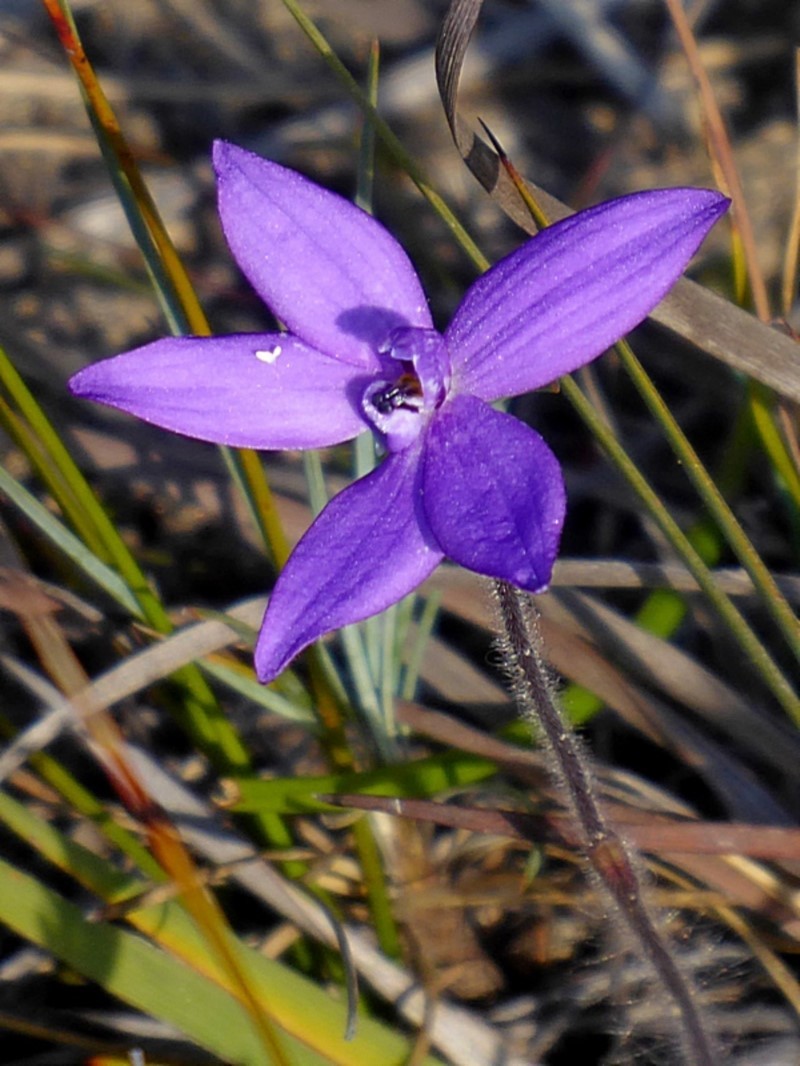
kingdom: Plantae
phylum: Tracheophyta
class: Liliopsida
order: Asparagales
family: Orchidaceae
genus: Caladenia
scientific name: Caladenia minorata
